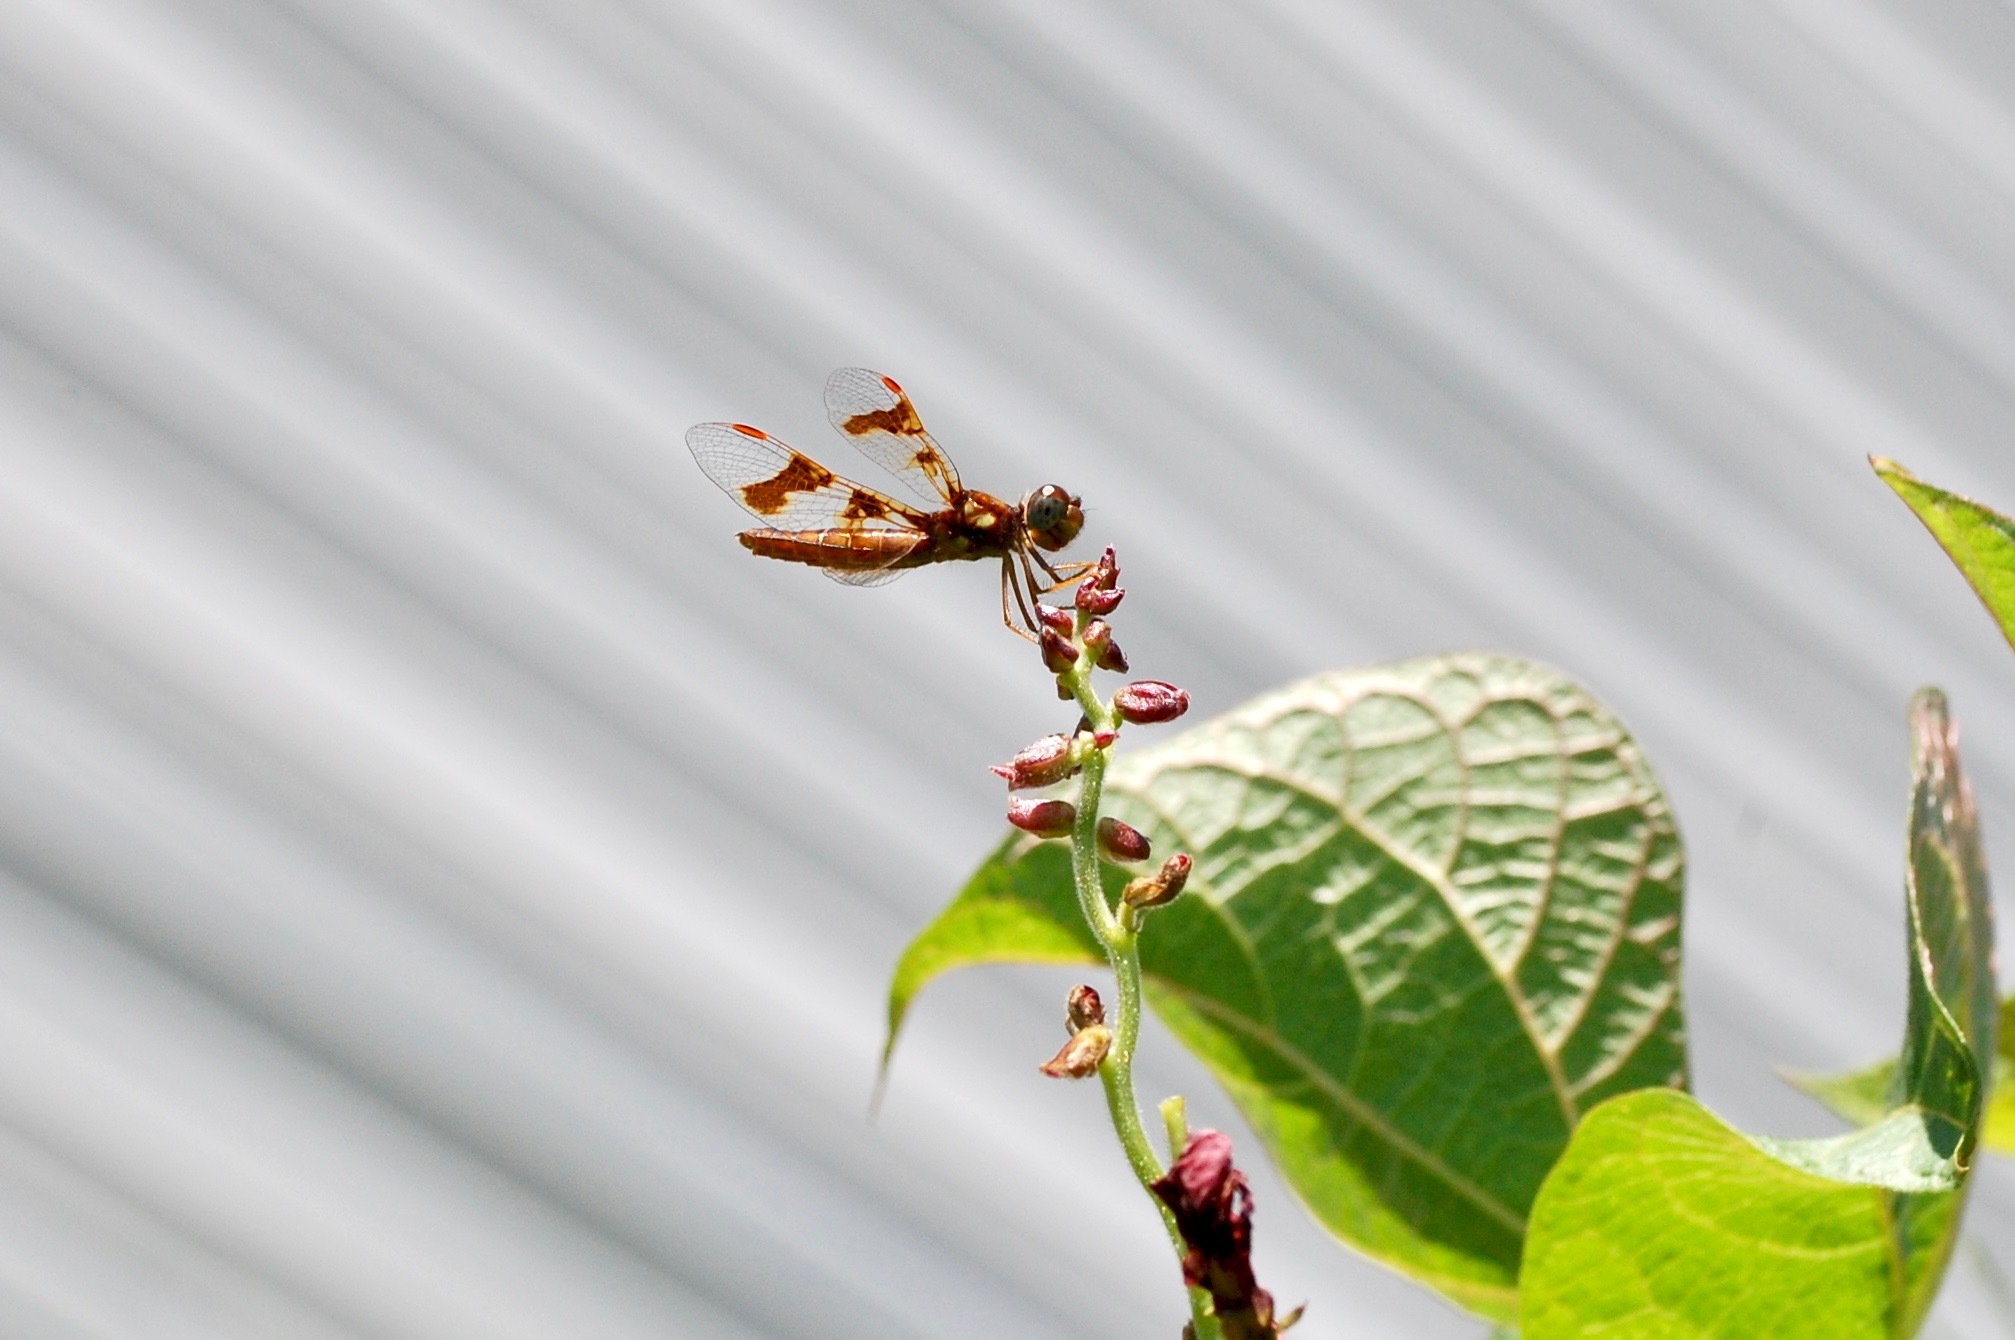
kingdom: Animalia
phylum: Arthropoda
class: Insecta
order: Odonata
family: Libellulidae
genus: Perithemis
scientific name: Perithemis tenera
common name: Eastern amberwing
